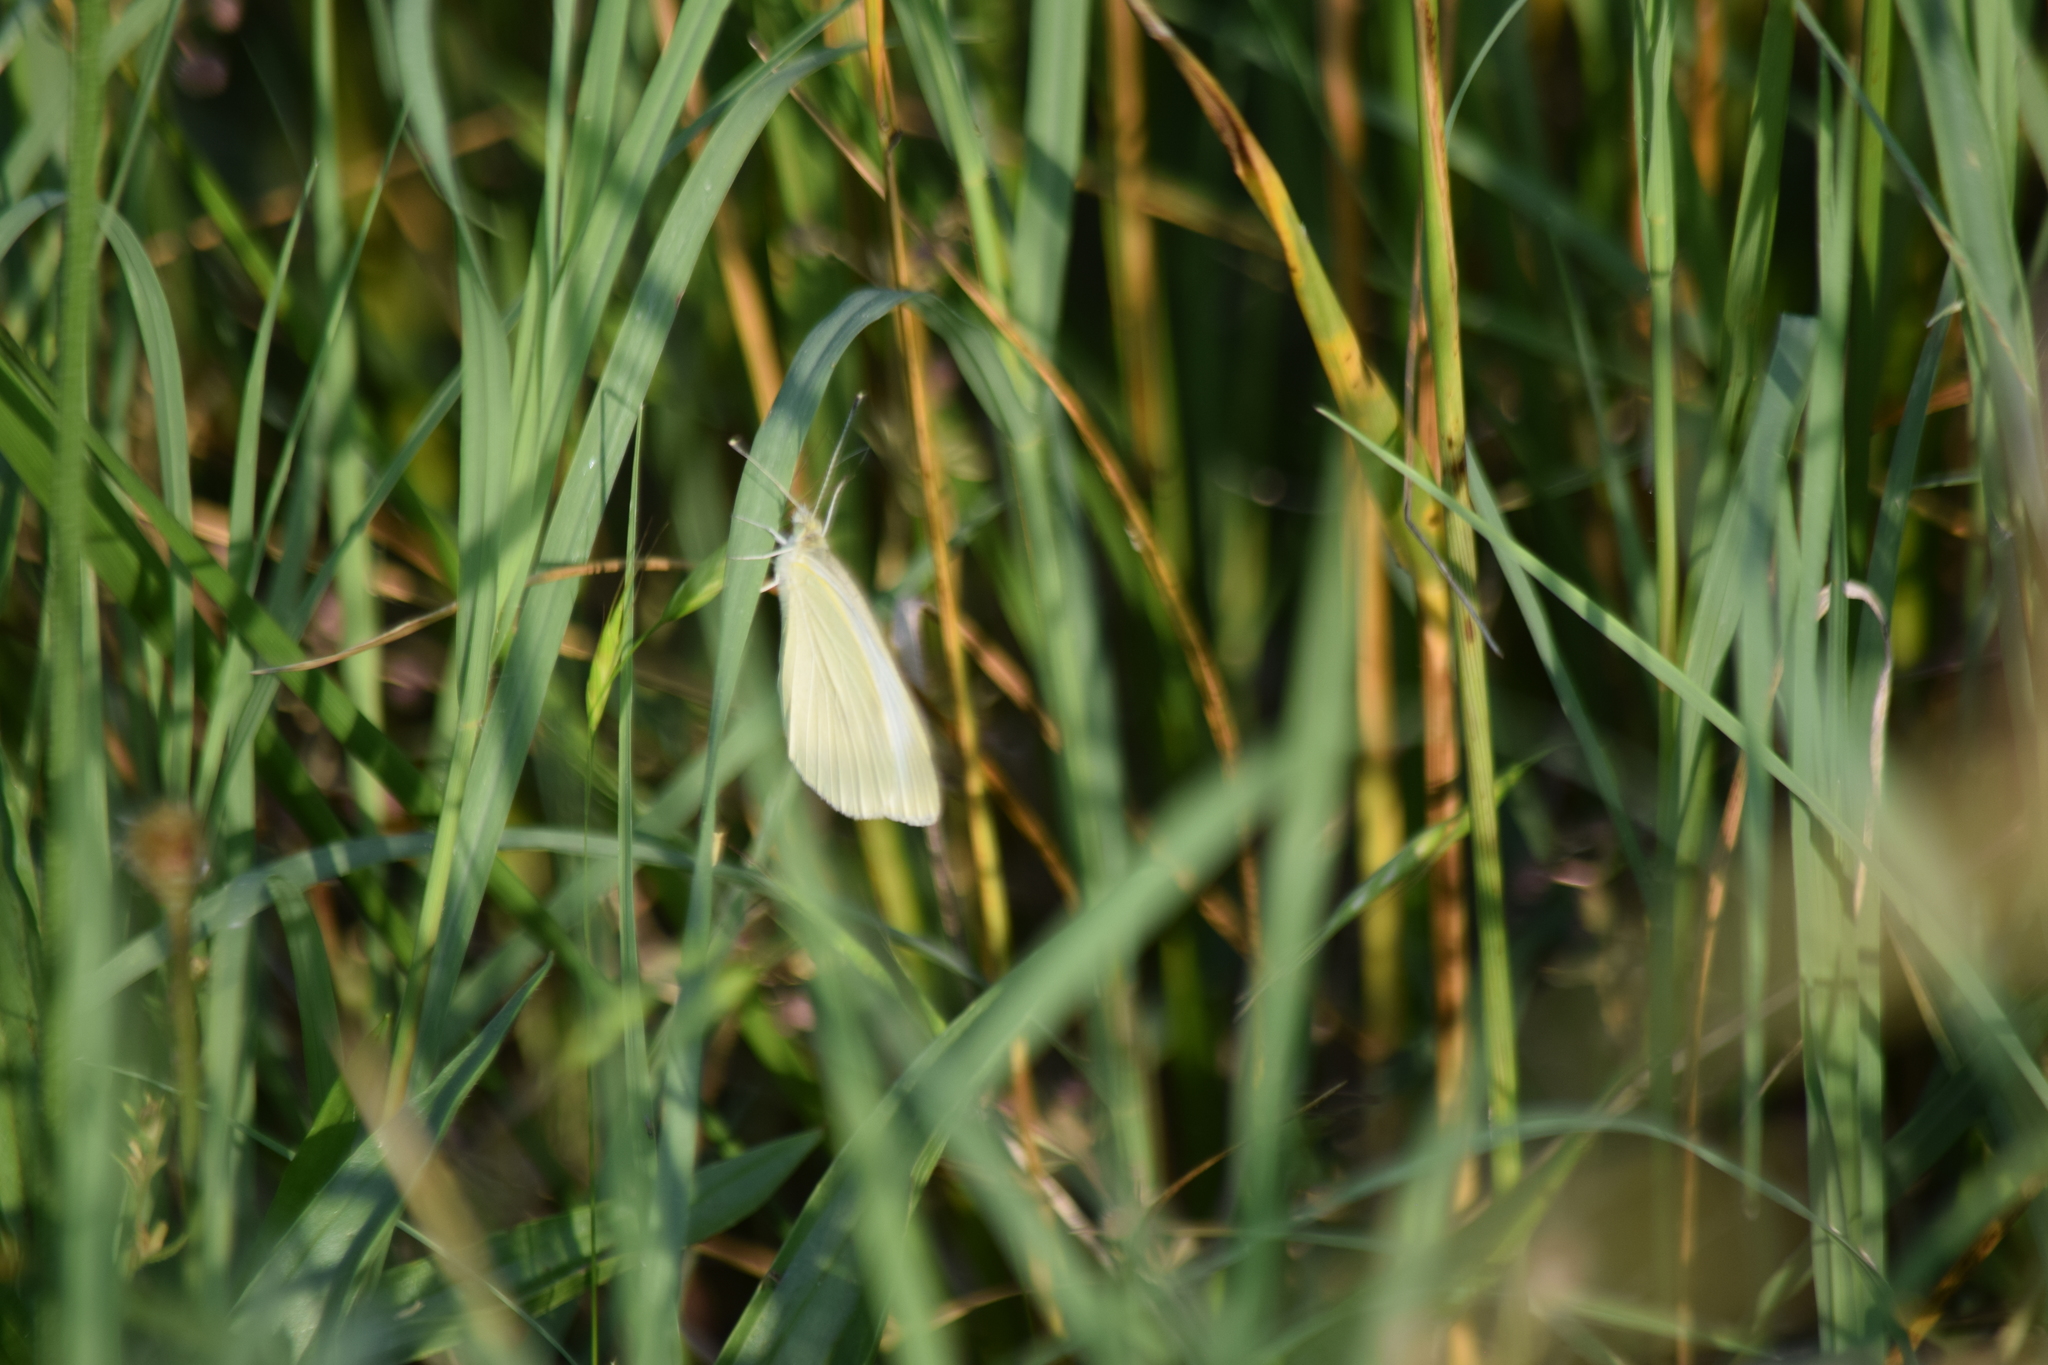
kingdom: Animalia
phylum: Arthropoda
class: Insecta
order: Lepidoptera
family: Pieridae
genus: Pieris
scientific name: Pieris rapae
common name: Small white
